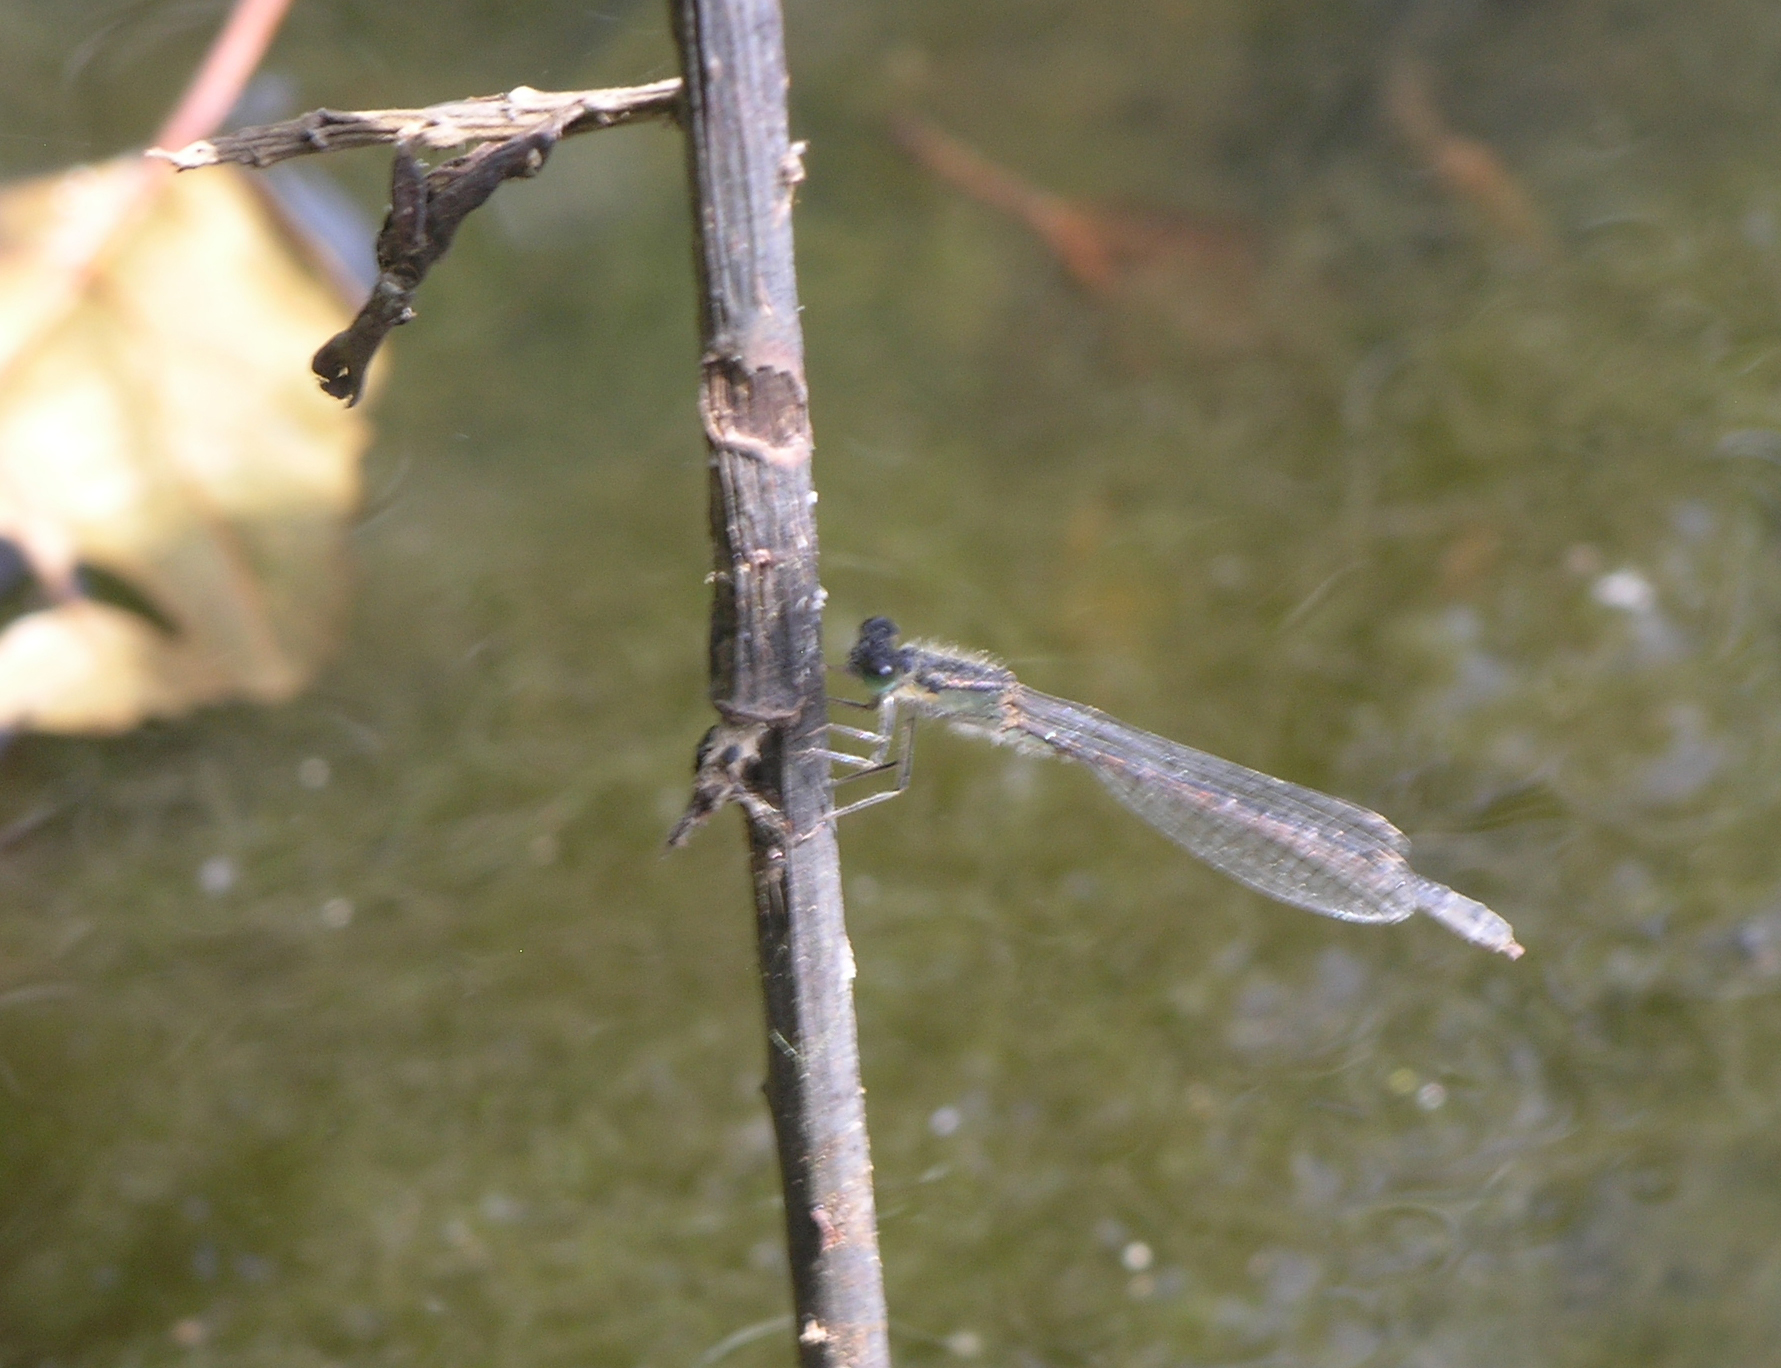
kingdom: Animalia
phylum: Arthropoda
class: Insecta
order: Odonata
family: Coenagrionidae
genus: Ischnura
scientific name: Ischnura graellsii
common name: Iberian bluetail
